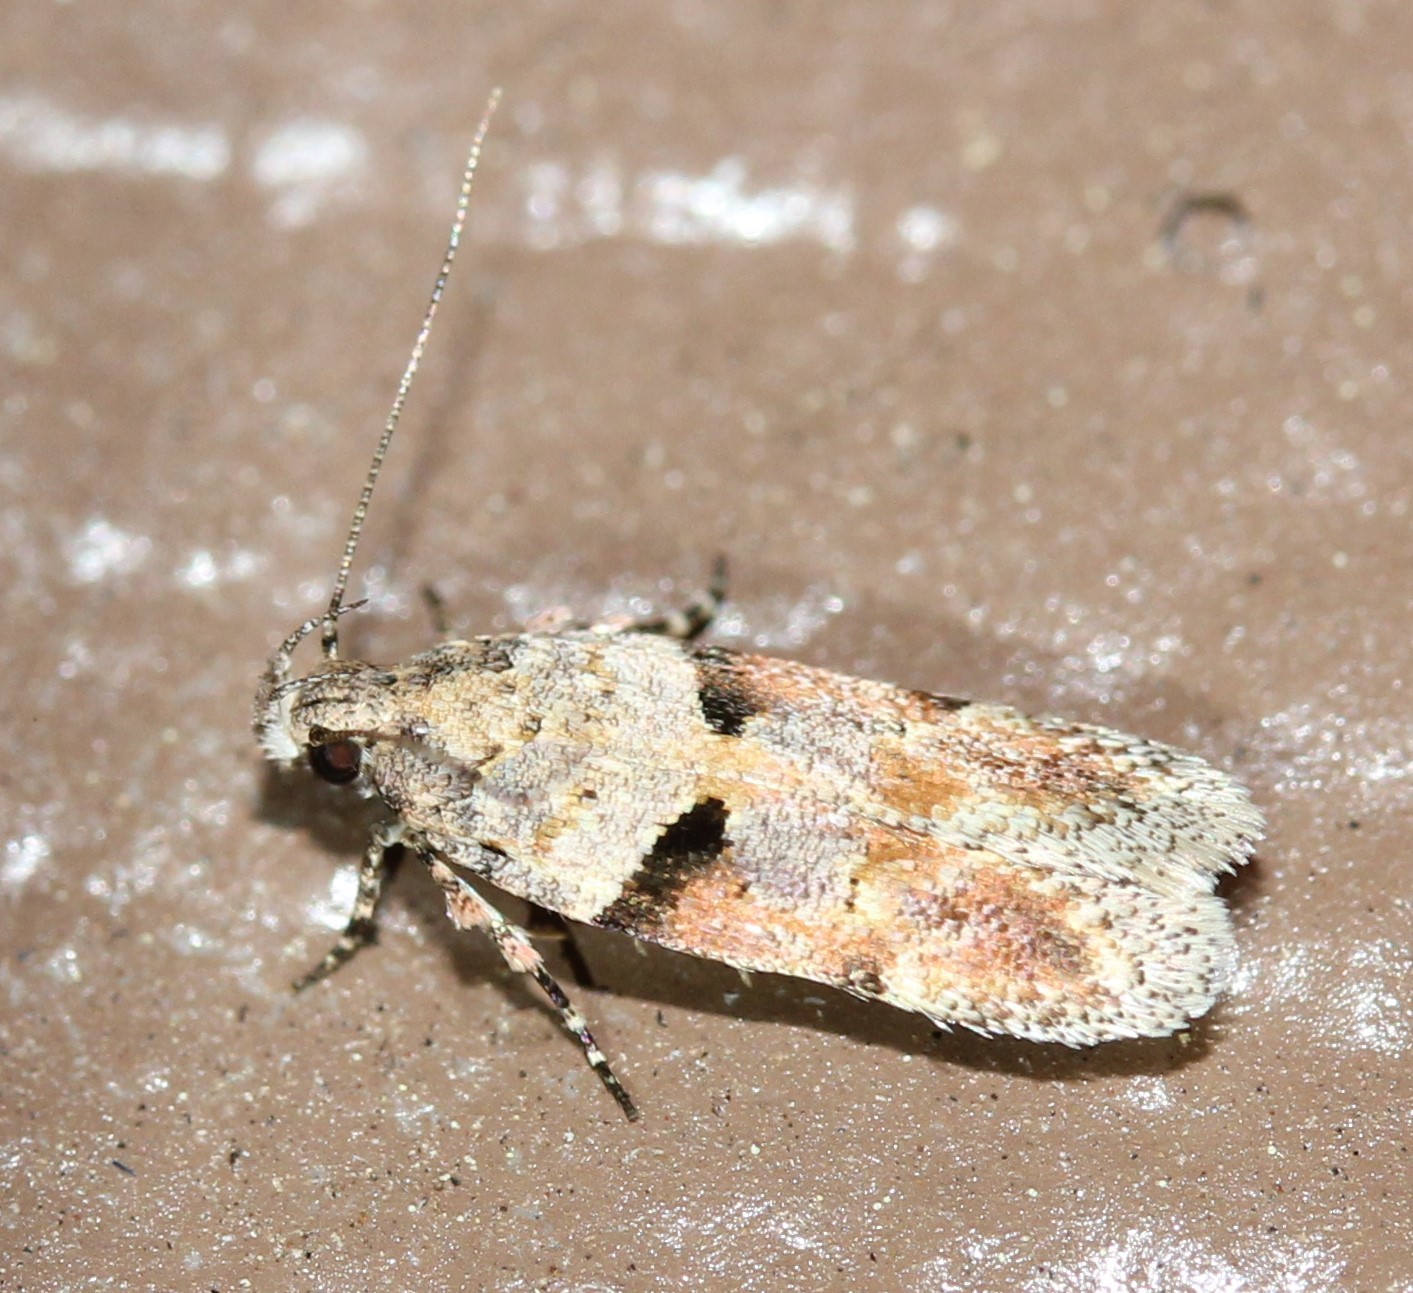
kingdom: Animalia
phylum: Arthropoda
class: Insecta
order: Lepidoptera
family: Gelechiidae
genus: Faculta
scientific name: Faculta inaequalis
